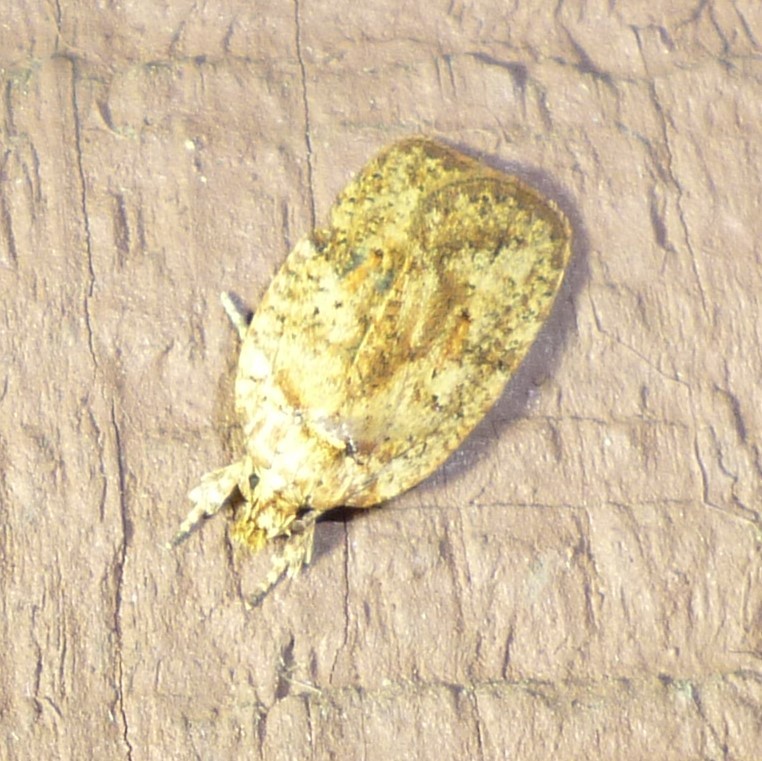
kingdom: Animalia
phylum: Arthropoda
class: Insecta
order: Lepidoptera
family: Depressariidae
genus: Agonopterix
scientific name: Agonopterix thelmae
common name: Thelma's agonopterix moth
